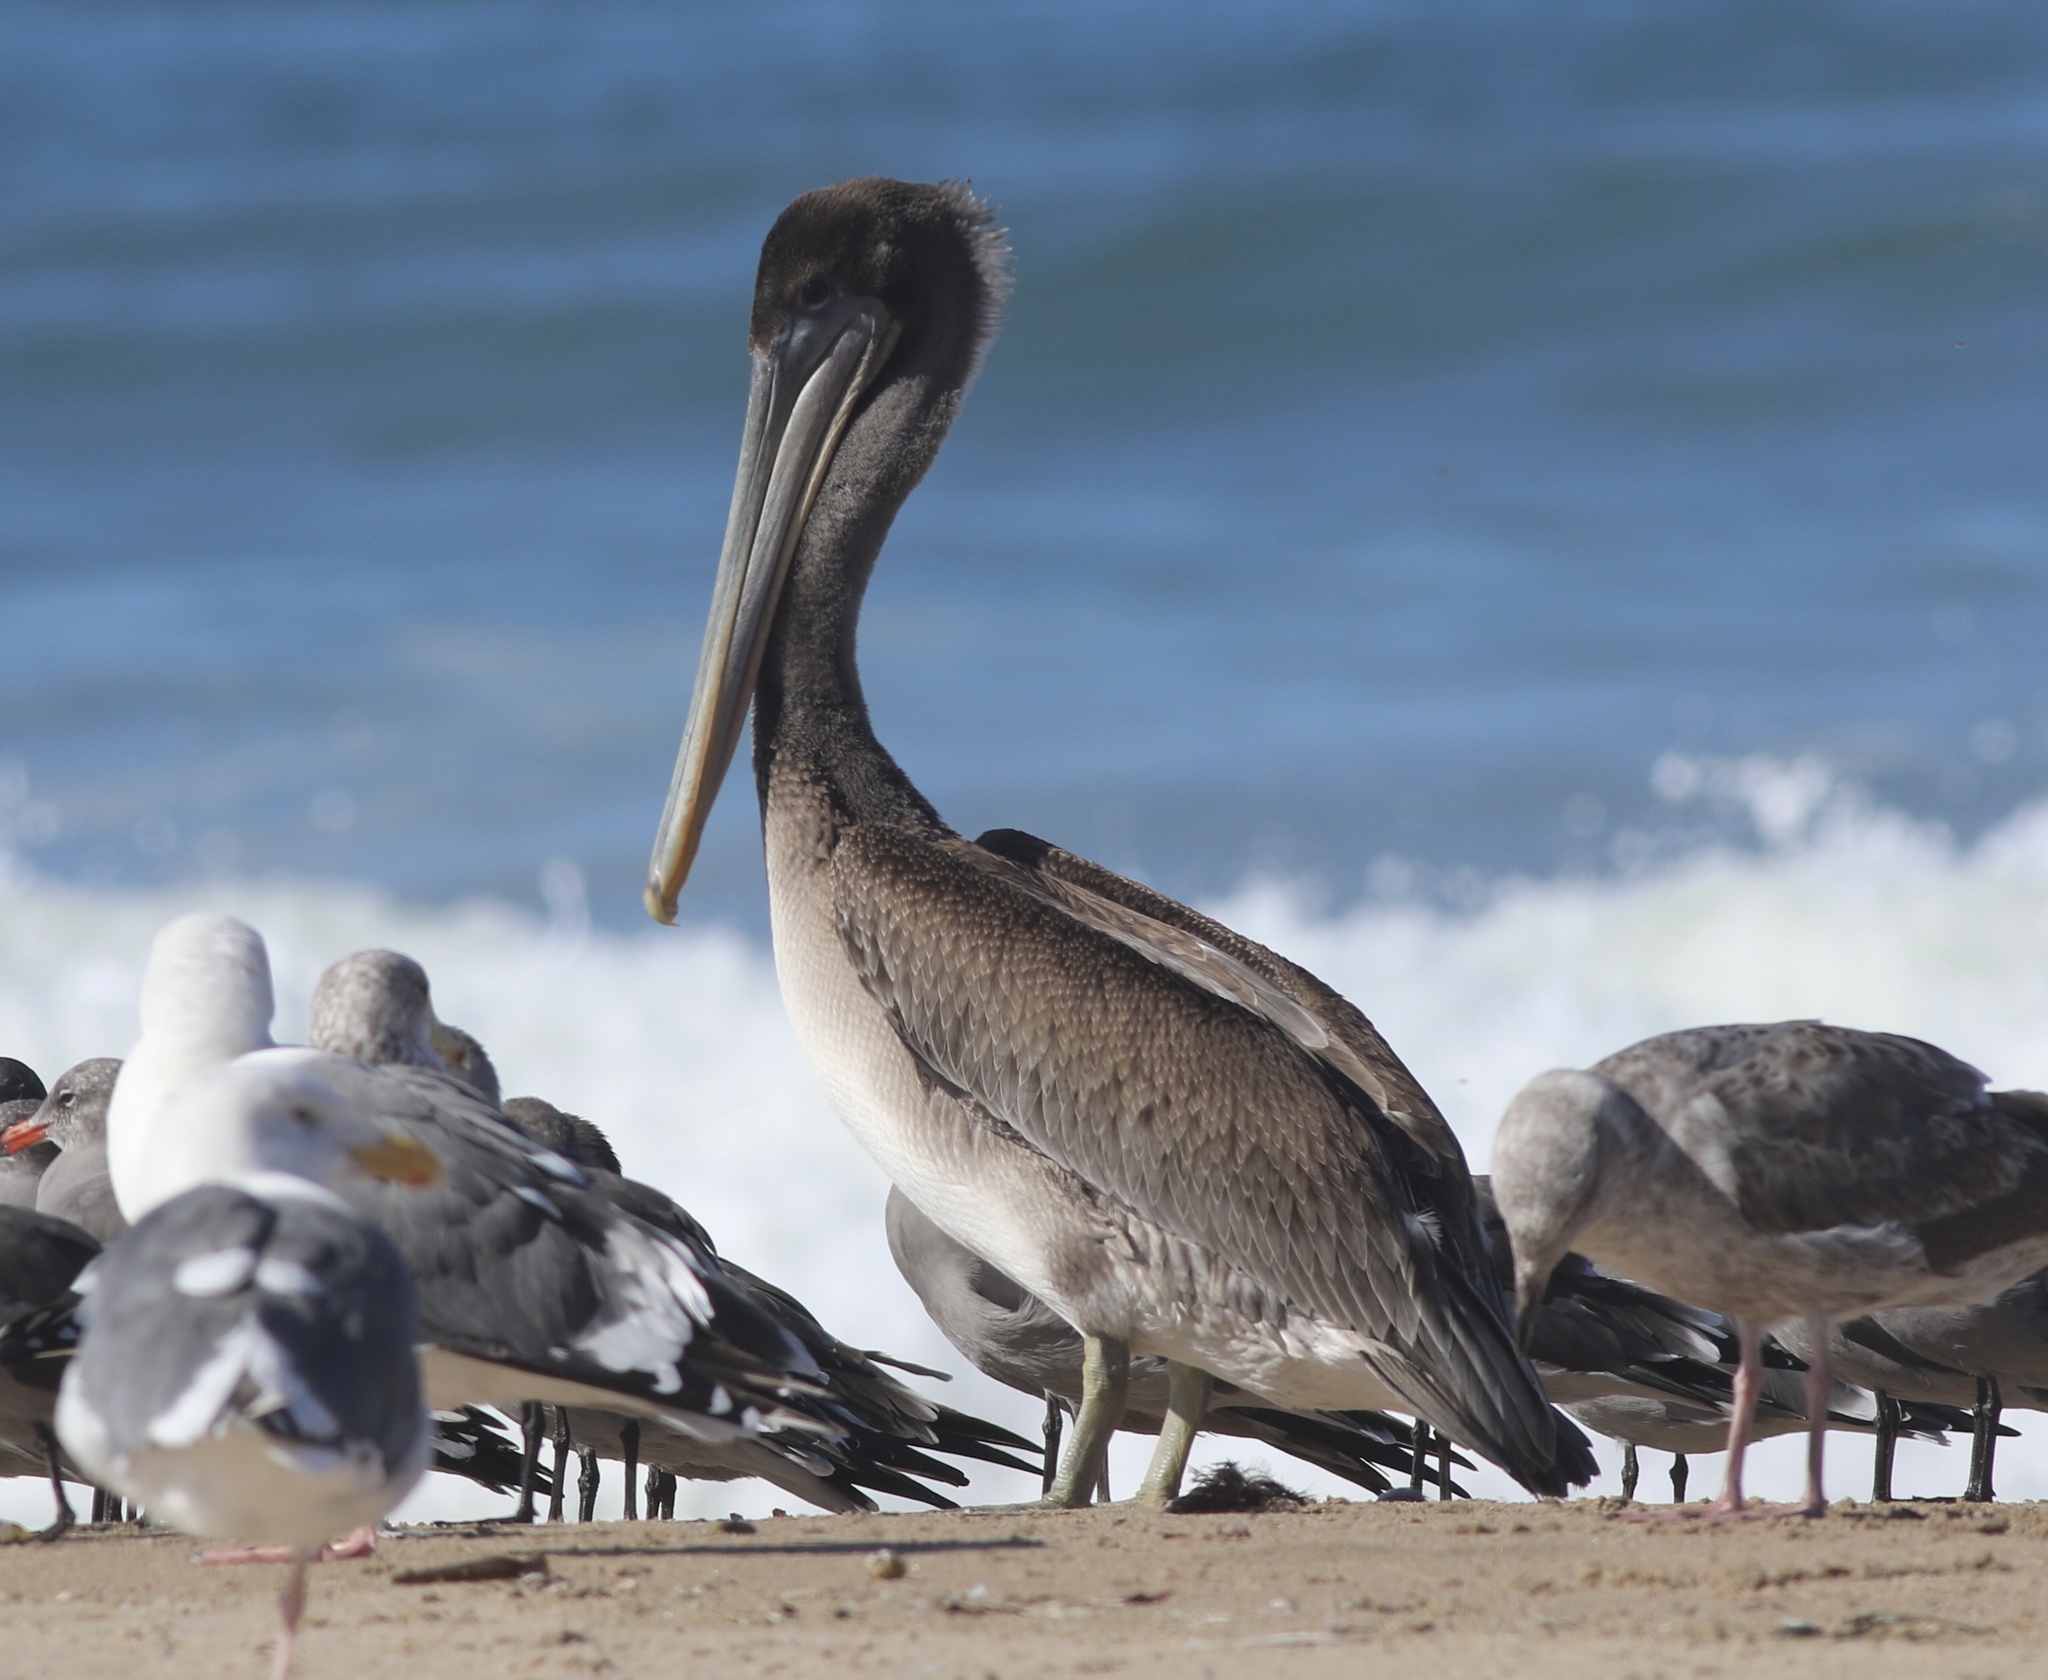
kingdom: Animalia
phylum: Chordata
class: Aves
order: Pelecaniformes
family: Pelecanidae
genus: Pelecanus
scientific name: Pelecanus occidentalis
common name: Brown pelican
